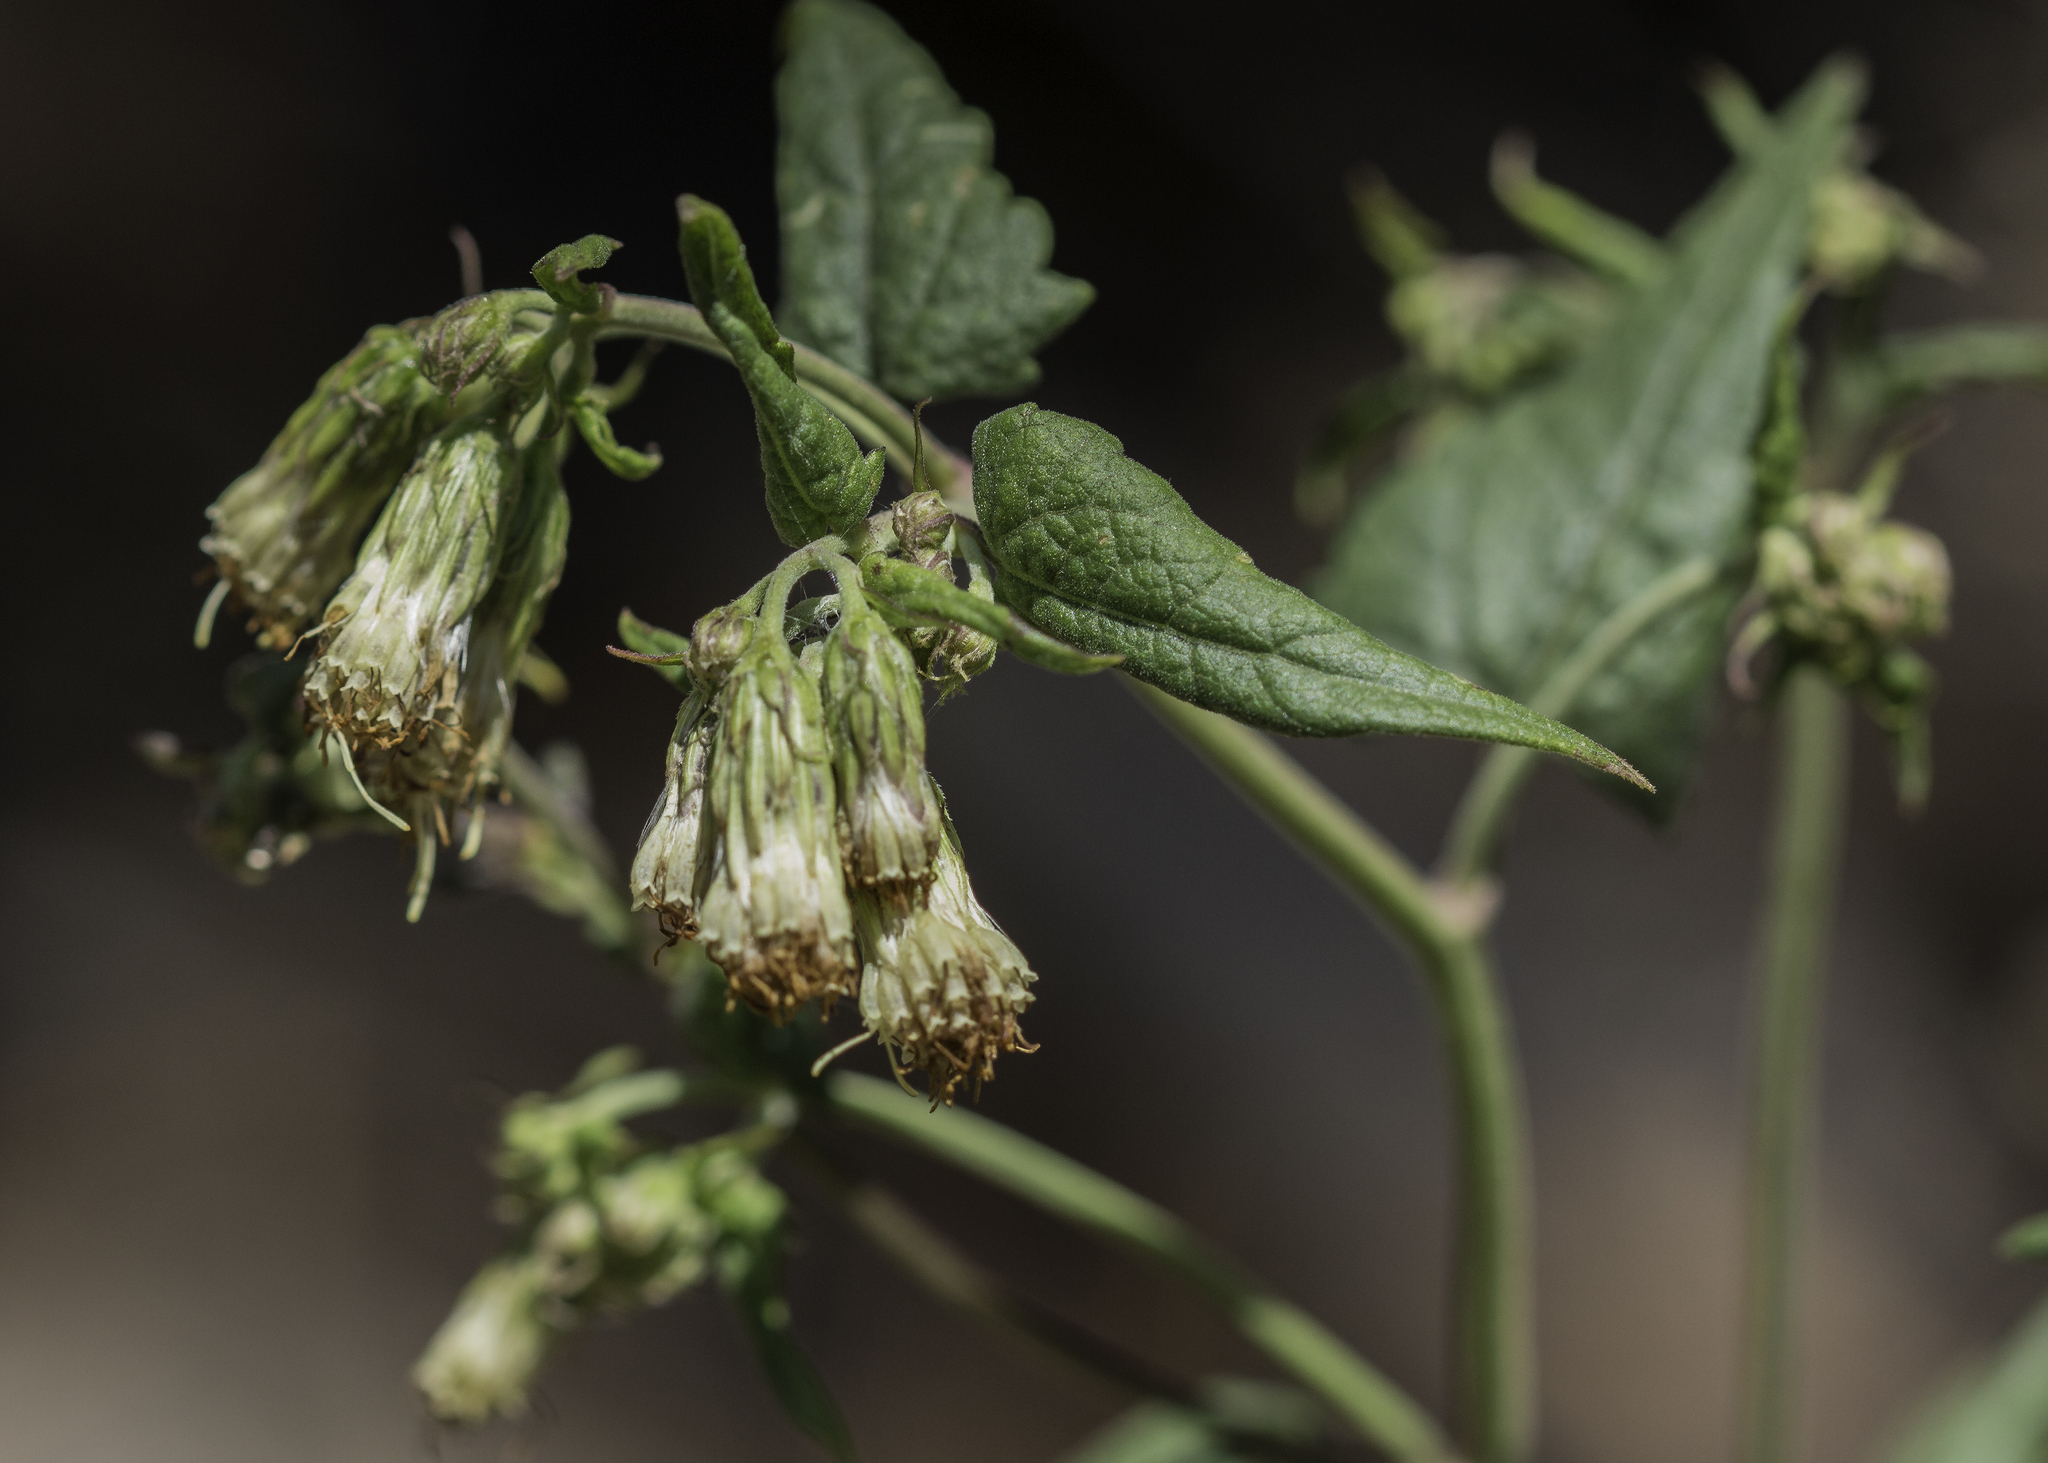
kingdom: Plantae
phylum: Tracheophyta
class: Magnoliopsida
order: Asterales
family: Asteraceae
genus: Brickellia
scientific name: Brickellia grandiflora
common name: Large-flowered brickellia
